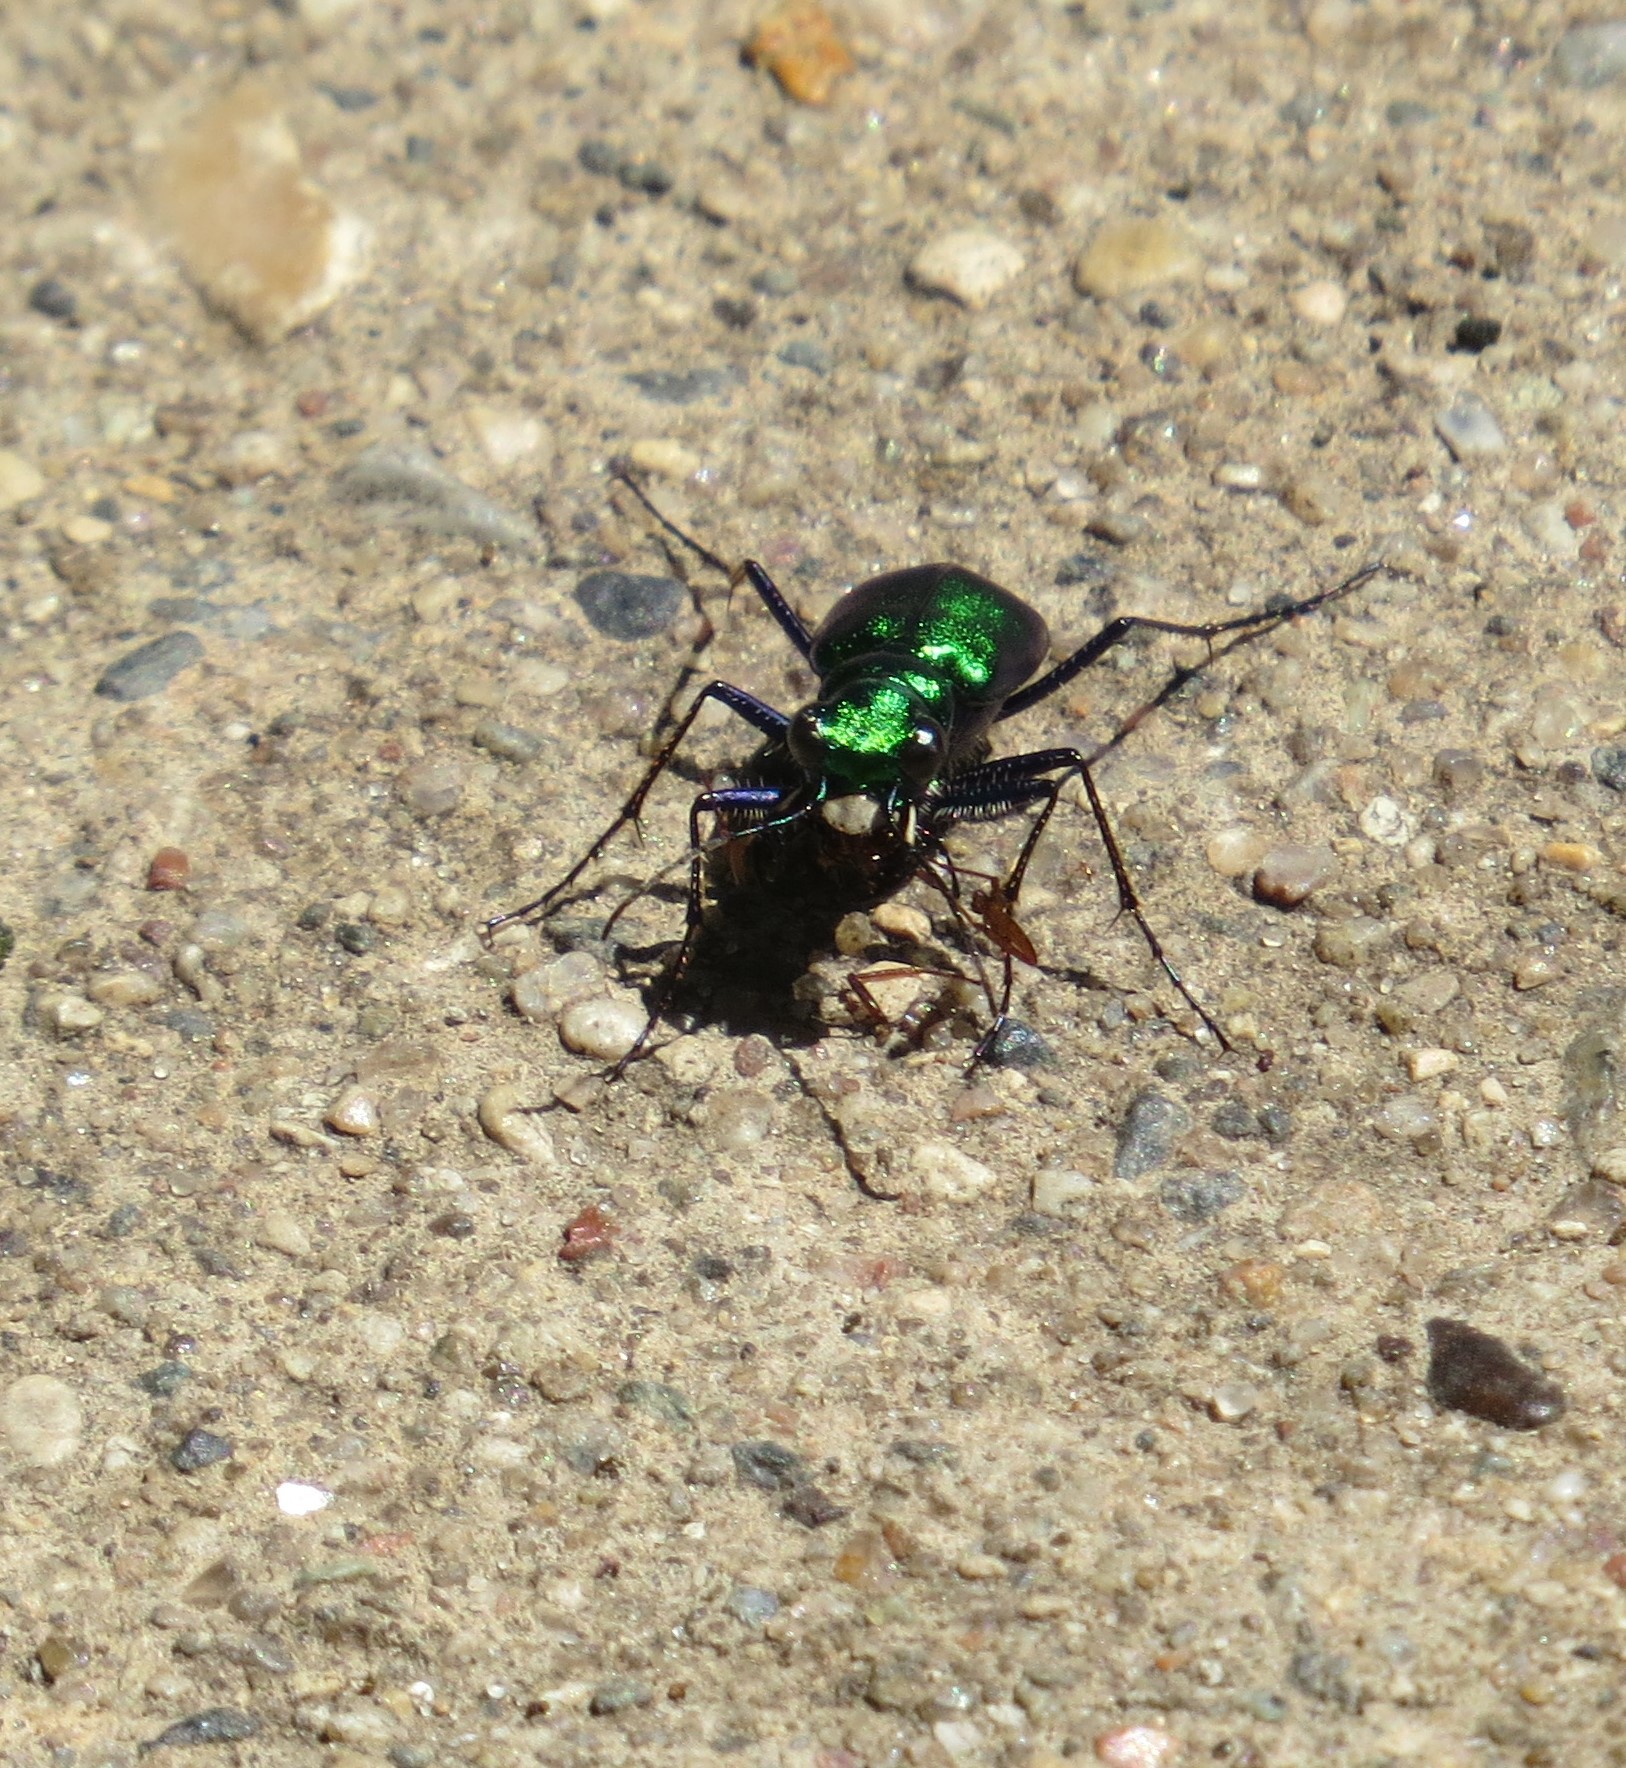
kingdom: Animalia
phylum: Arthropoda
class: Insecta
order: Coleoptera
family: Carabidae
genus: Cicindela
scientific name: Cicindela sexguttata
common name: Six-spotted tiger beetle
